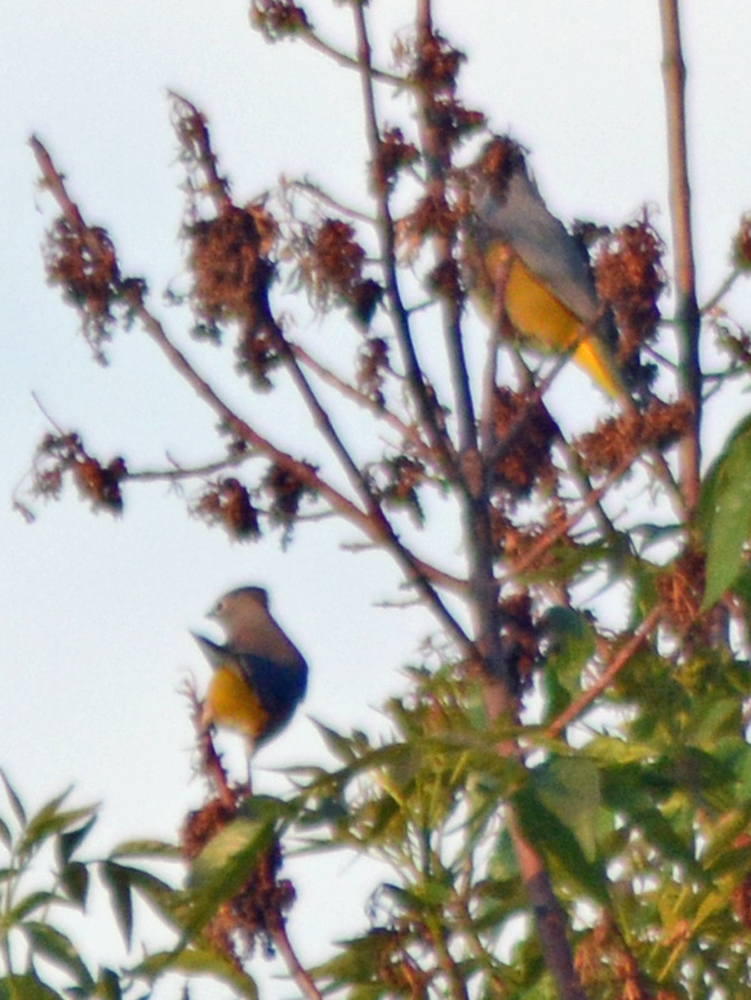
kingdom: Animalia
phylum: Chordata
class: Aves
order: Passeriformes
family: Ptilogonatidae
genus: Ptilogonys
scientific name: Ptilogonys cinereus
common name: Gray silky-flycatcher
